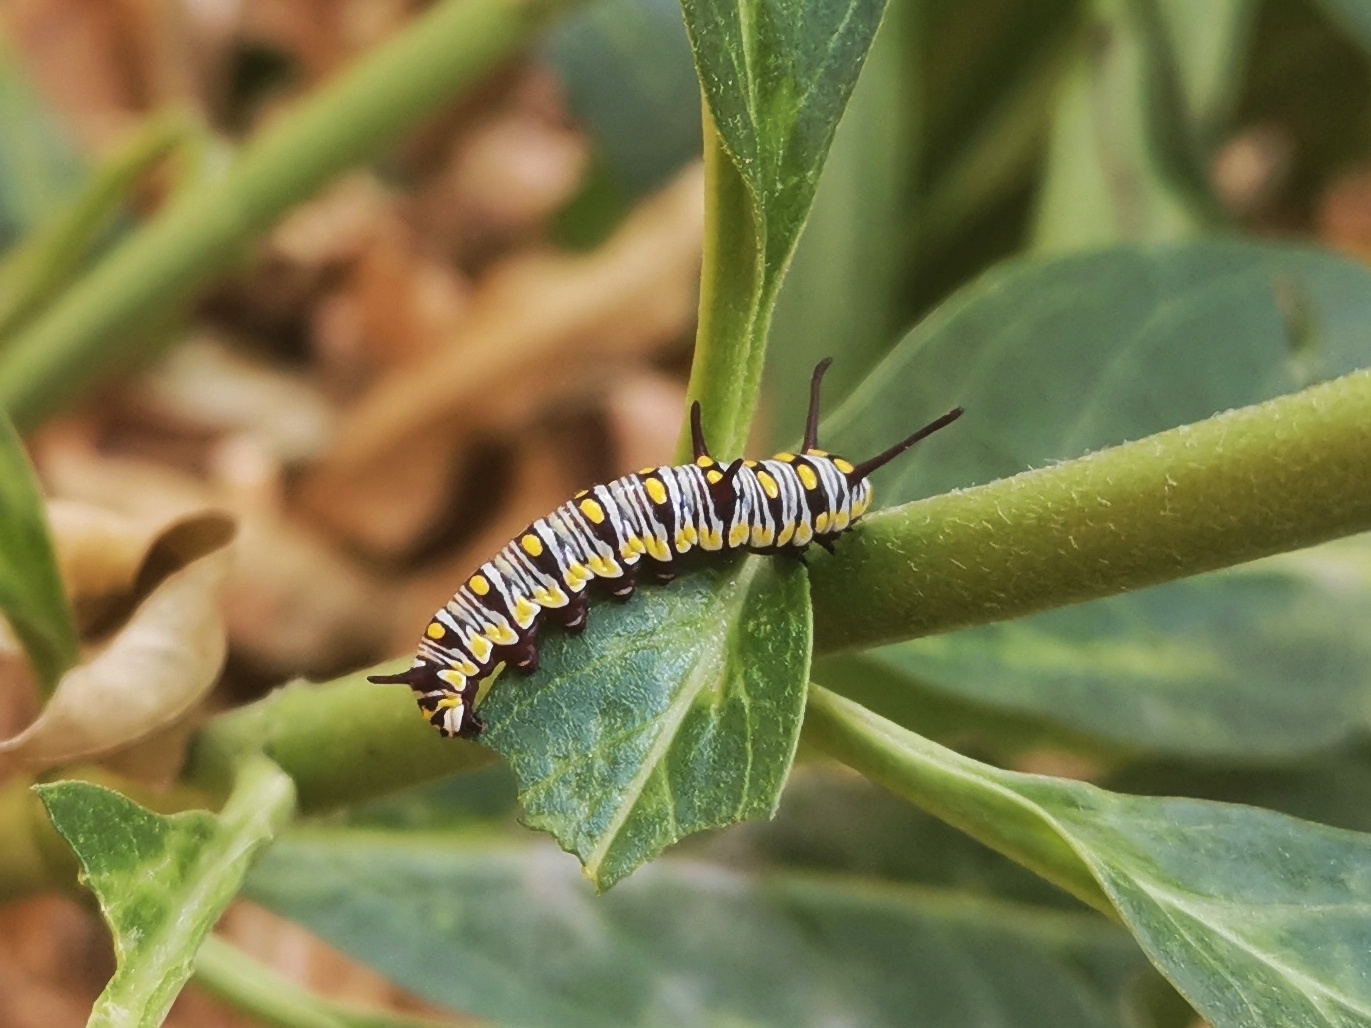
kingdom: Animalia
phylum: Arthropoda
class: Insecta
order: Lepidoptera
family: Nymphalidae
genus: Danaus
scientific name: Danaus chrysippus
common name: Plain tiger
